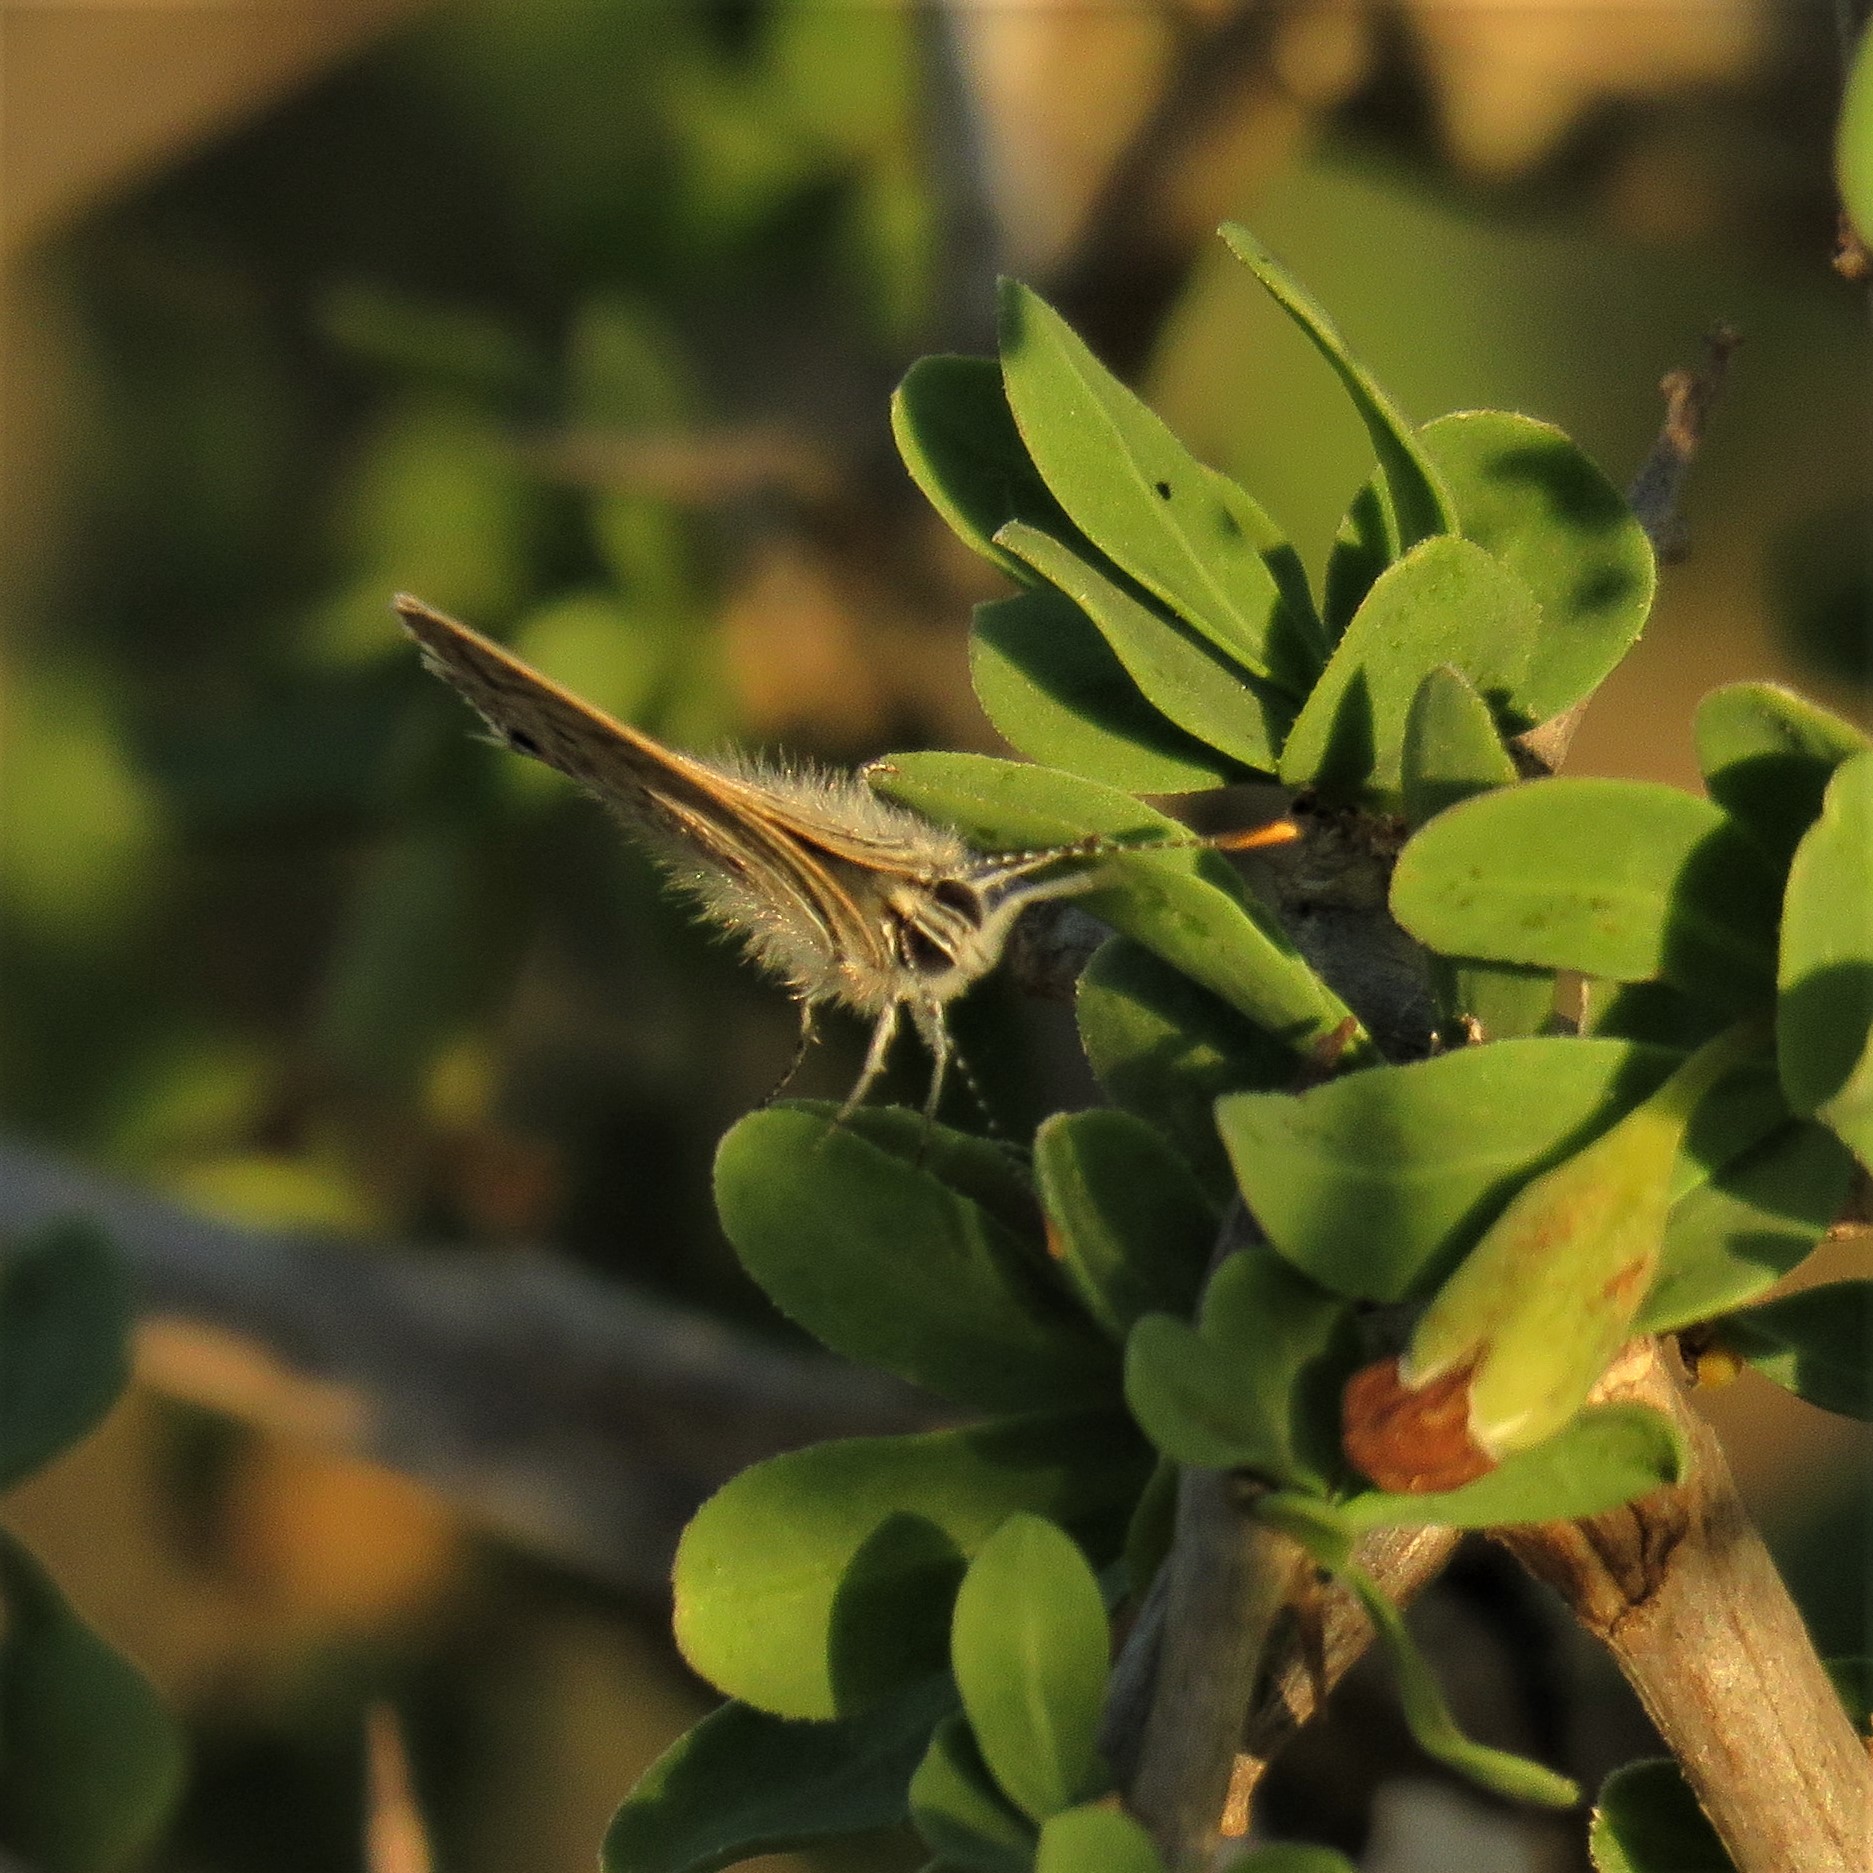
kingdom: Animalia
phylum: Arthropoda
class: Insecta
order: Lepidoptera
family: Lycaenidae
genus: Anthene
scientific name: Anthene amarah
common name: Black-striped hairtail
